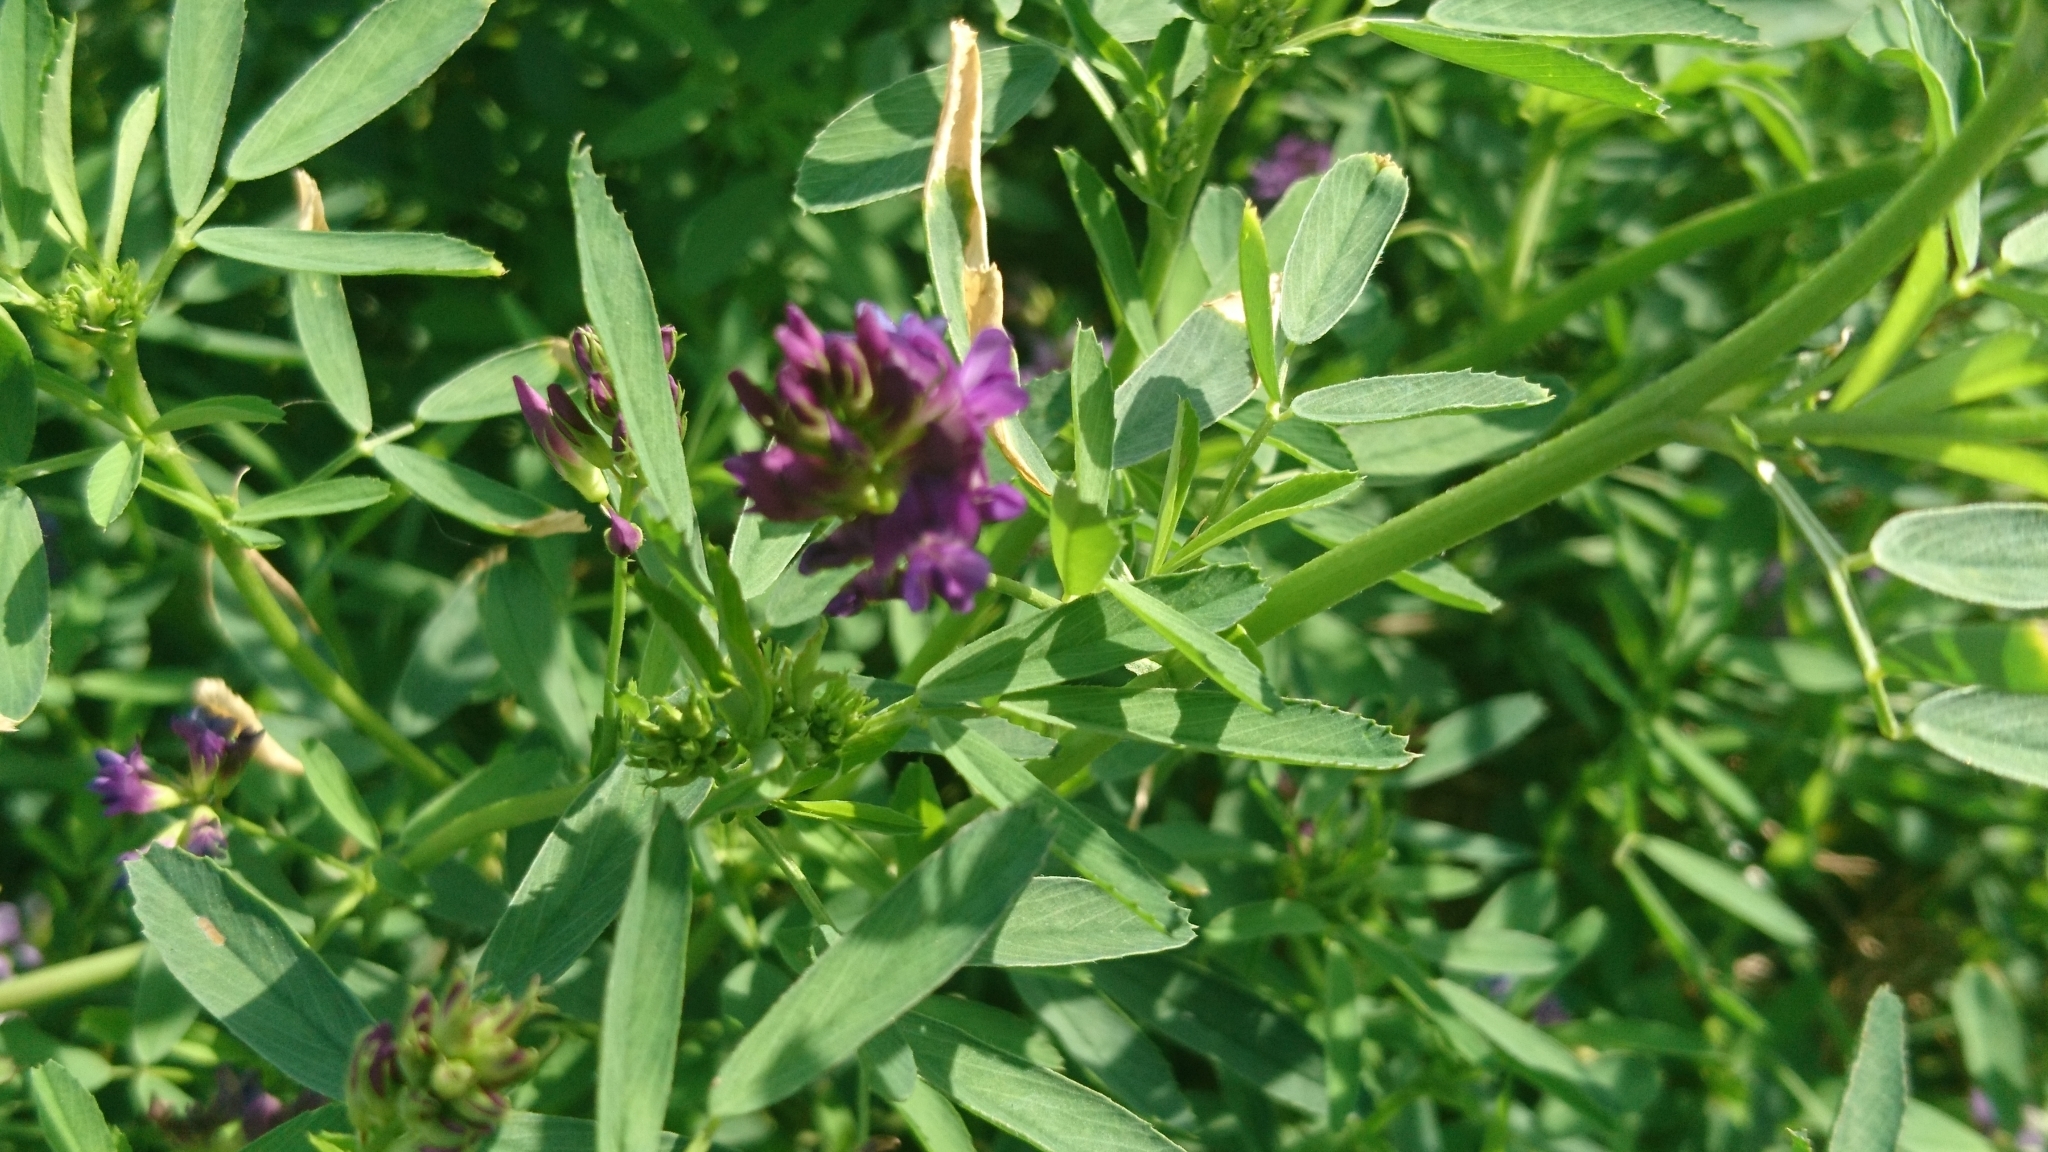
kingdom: Plantae
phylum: Tracheophyta
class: Magnoliopsida
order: Fabales
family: Fabaceae
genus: Medicago
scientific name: Medicago sativa
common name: Alfalfa
